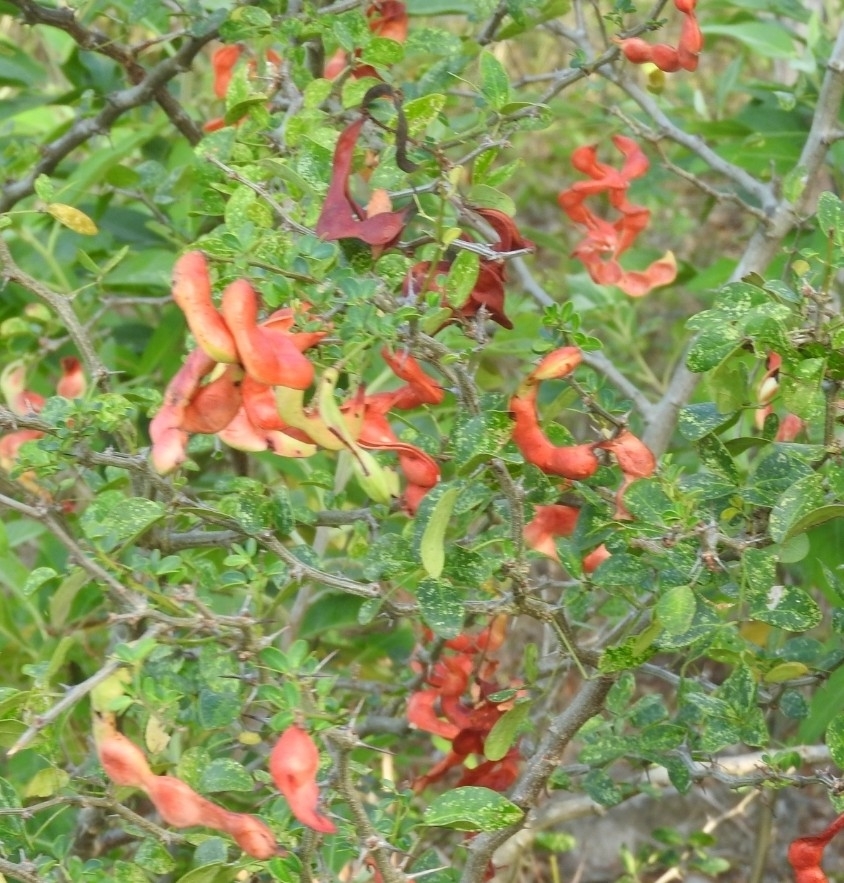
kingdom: Plantae
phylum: Tracheophyta
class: Magnoliopsida
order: Fabales
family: Fabaceae
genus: Pithecellobium
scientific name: Pithecellobium dulce
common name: Monkeypod
